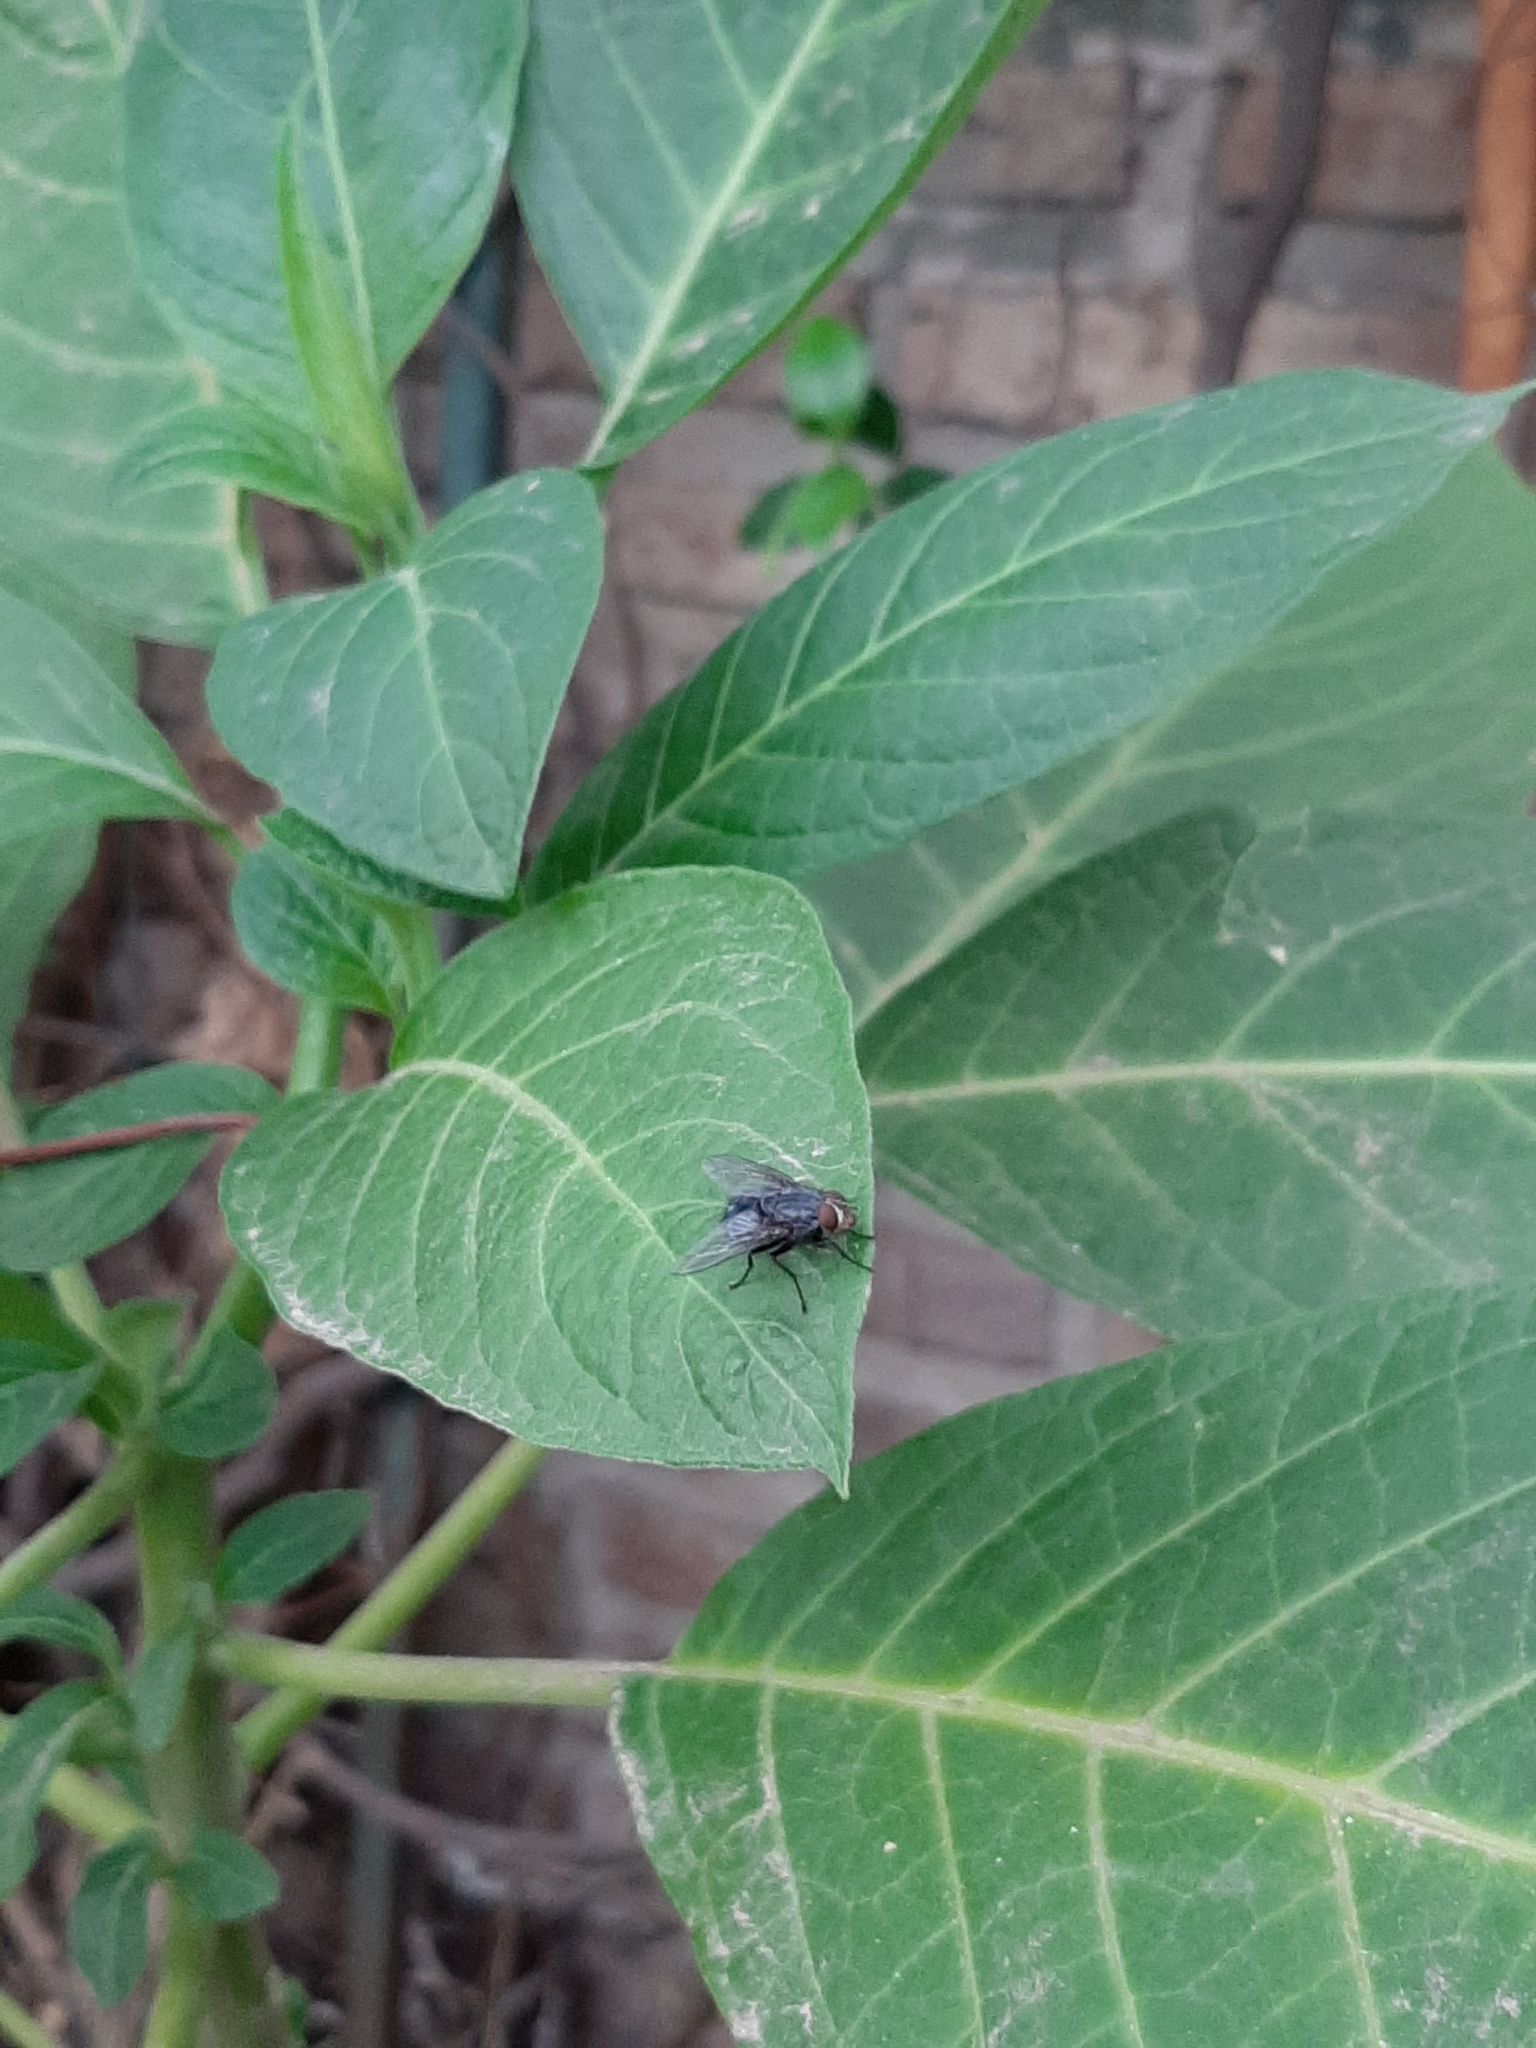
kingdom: Animalia
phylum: Arthropoda
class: Insecta
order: Diptera
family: Calliphoridae
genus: Calliphora
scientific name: Calliphora vicina
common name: Common blow flie
